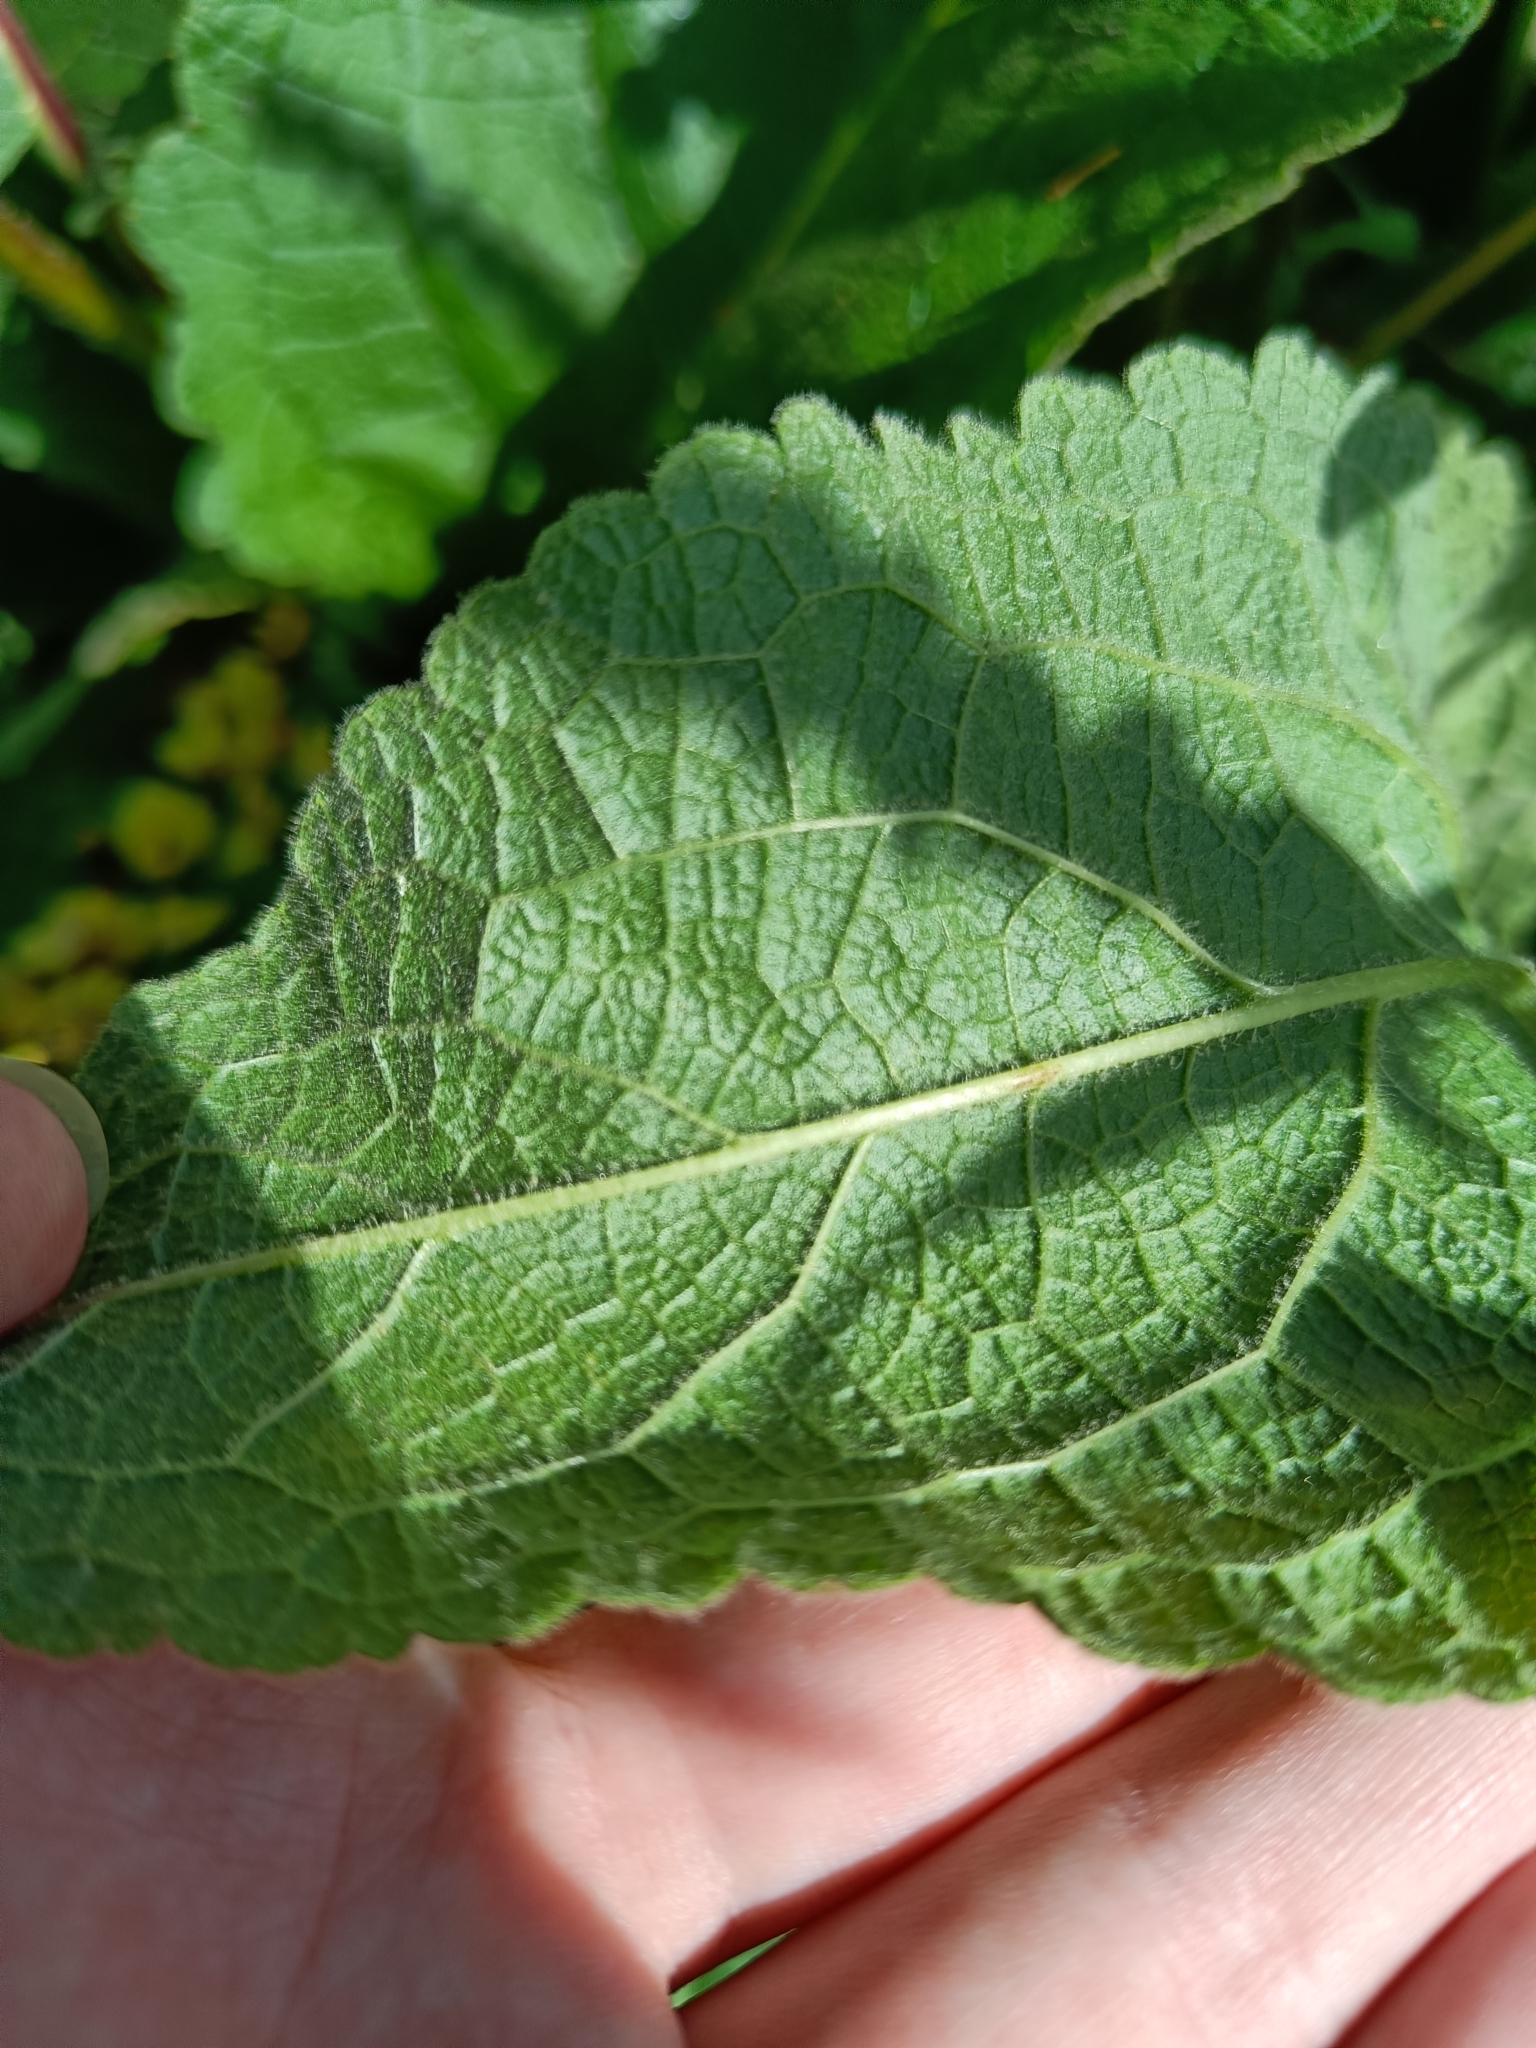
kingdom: Plantae
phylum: Tracheophyta
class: Magnoliopsida
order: Lamiales
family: Scrophulariaceae
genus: Verbascum
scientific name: Verbascum nigrum
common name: Dark mullein
